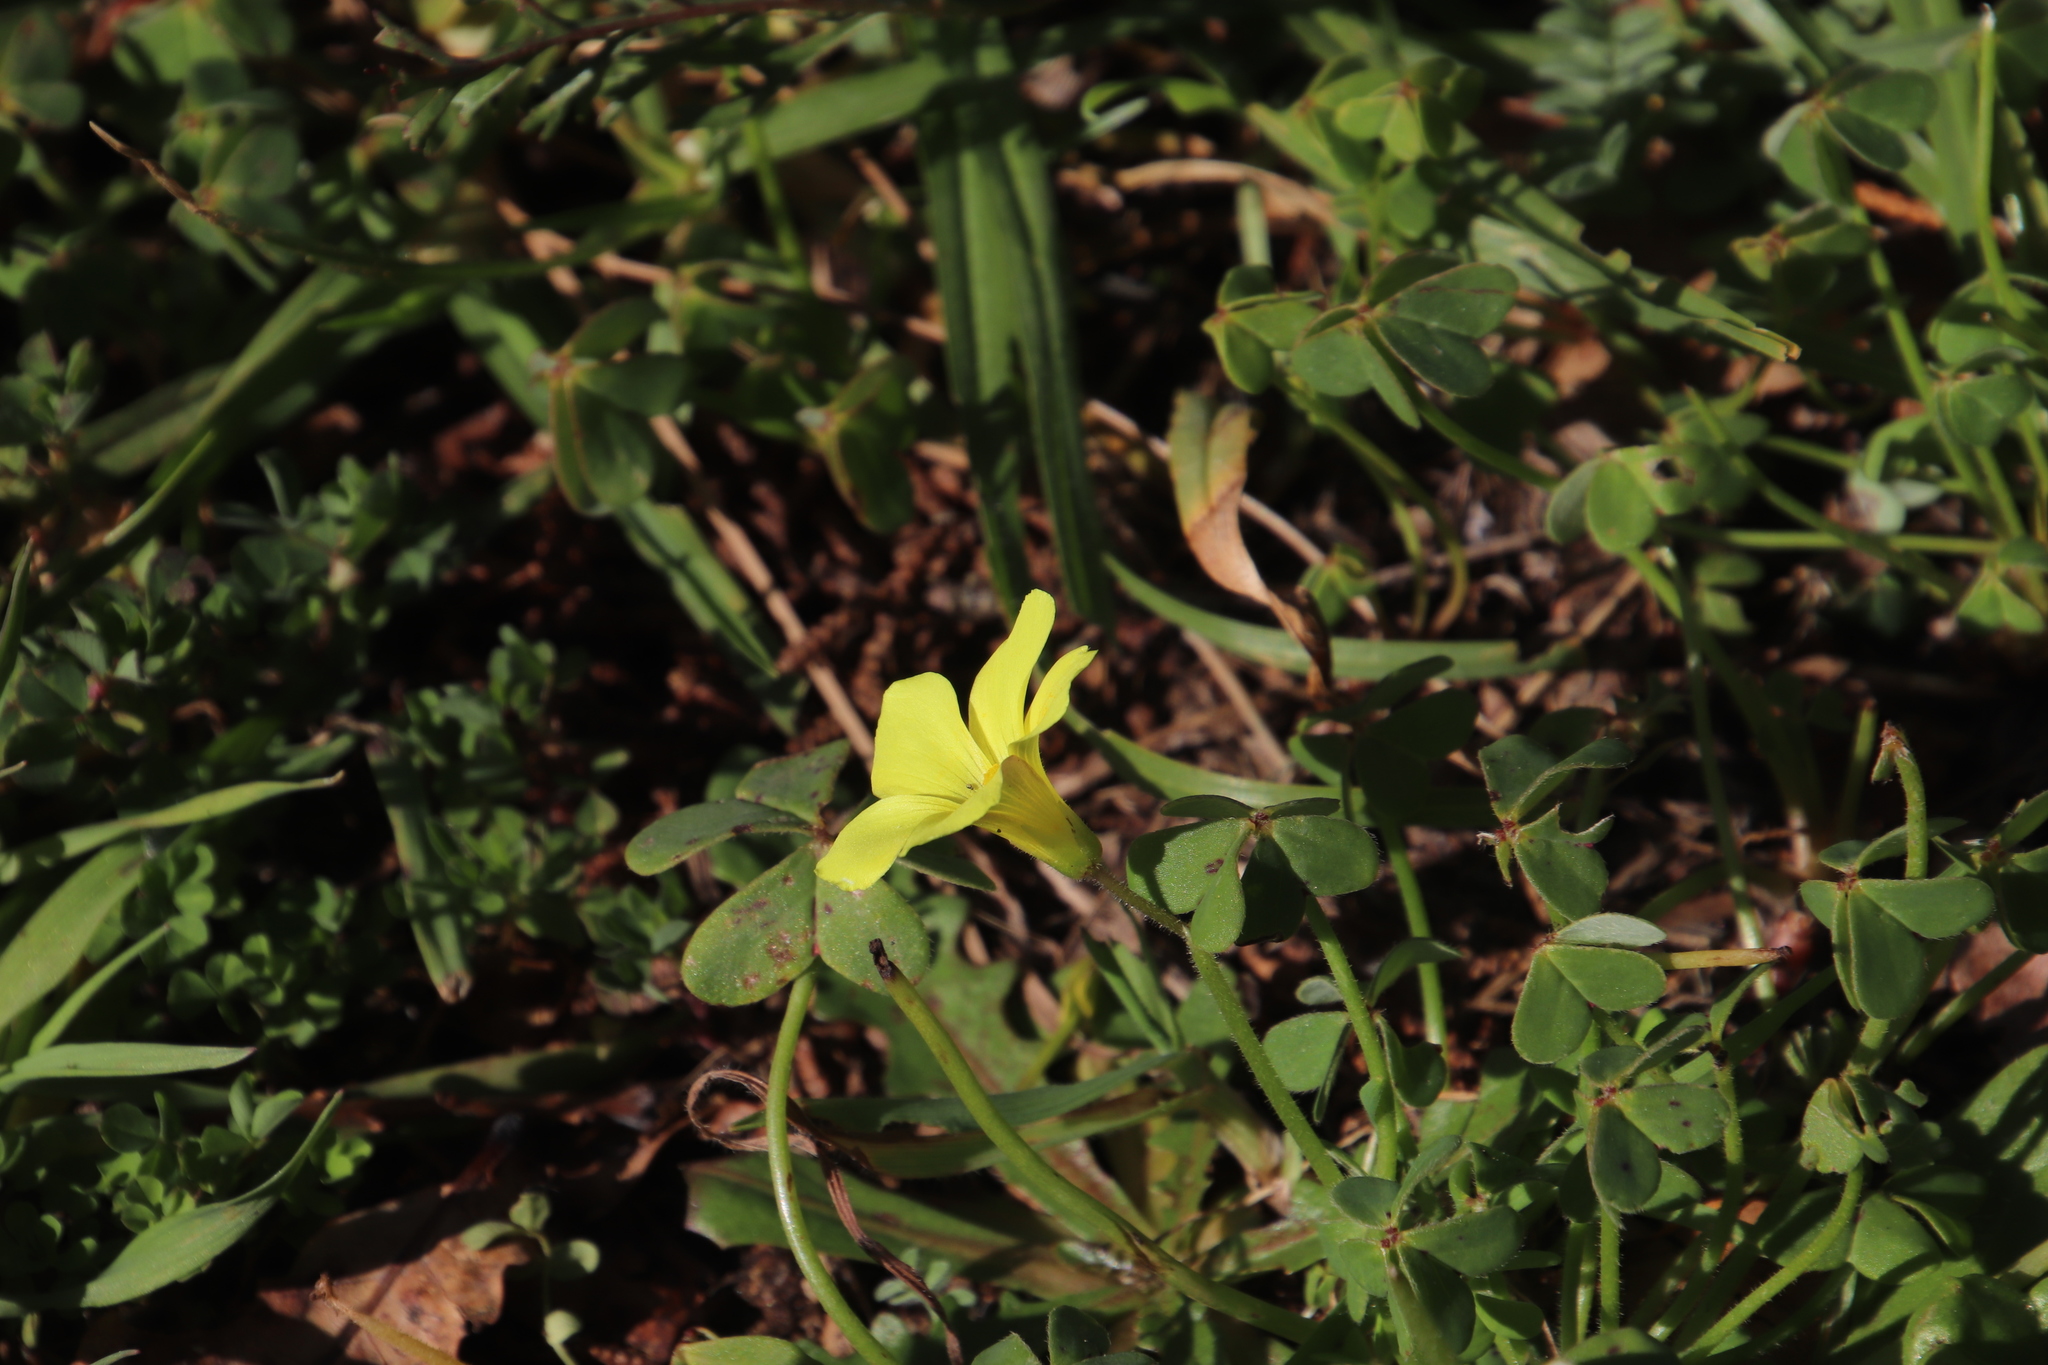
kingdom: Plantae
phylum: Tracheophyta
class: Magnoliopsida
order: Oxalidales
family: Oxalidaceae
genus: Oxalis
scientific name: Oxalis pes-caprae
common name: Bermuda-buttercup
